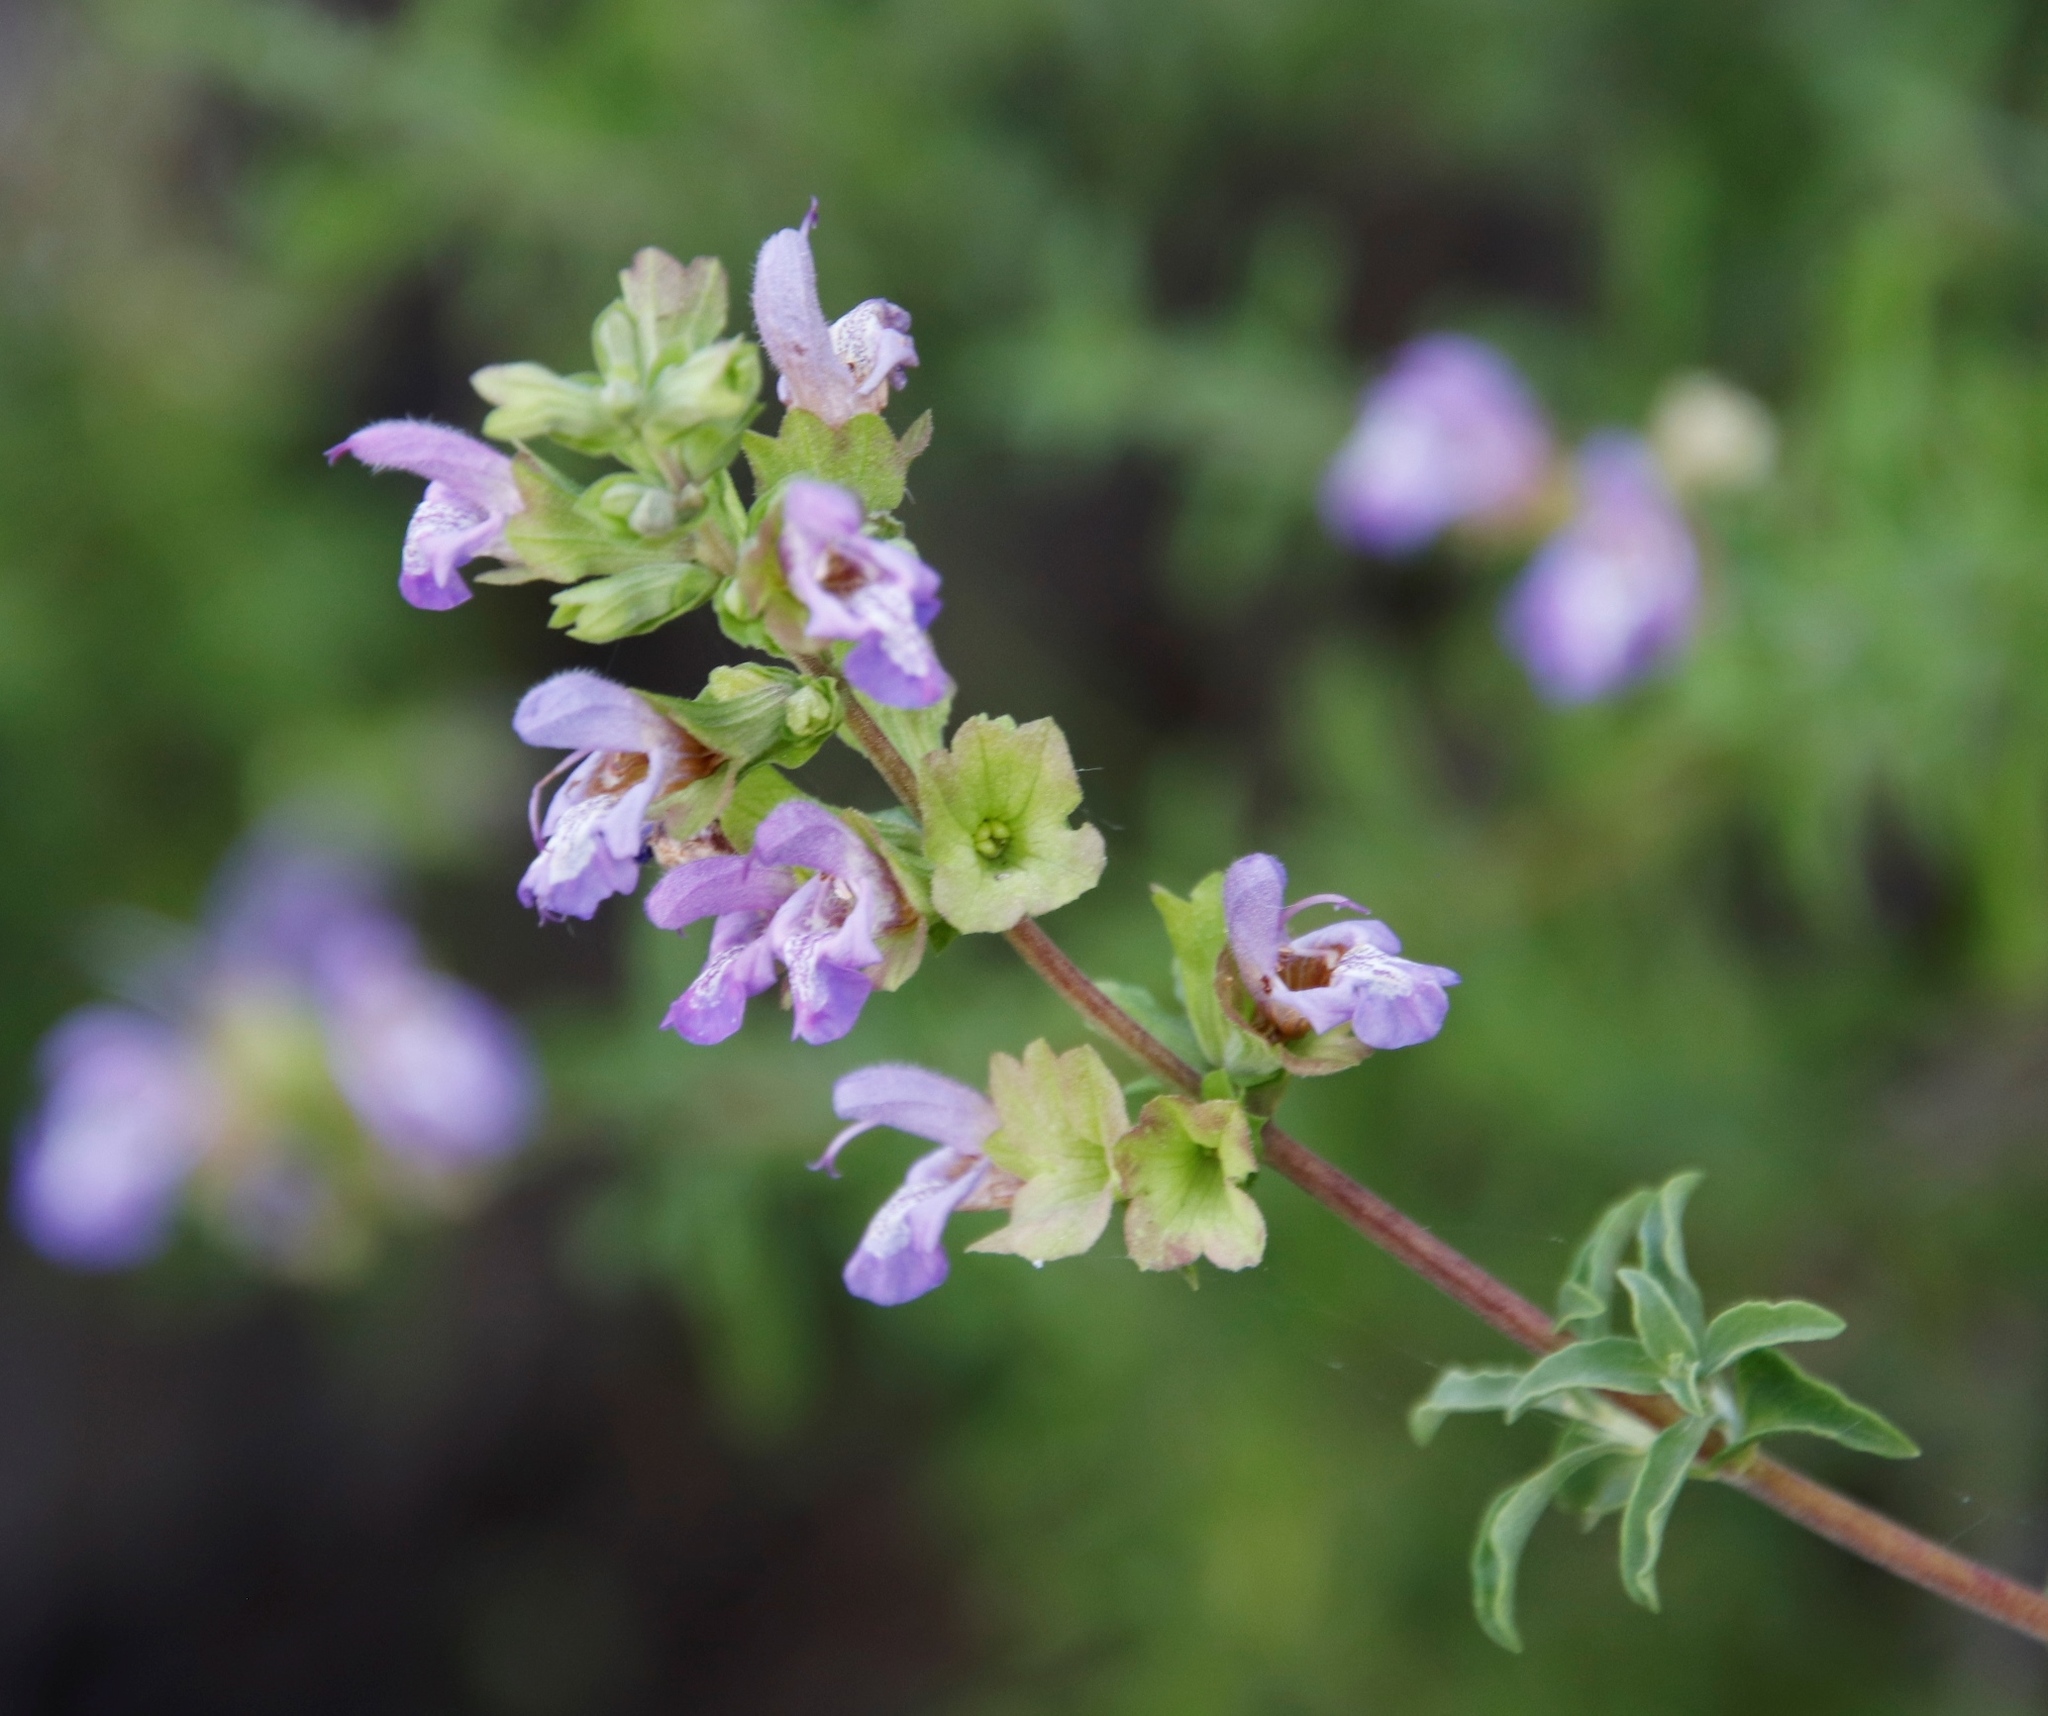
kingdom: Plantae
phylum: Tracheophyta
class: Magnoliopsida
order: Lamiales
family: Lamiaceae
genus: Salvia
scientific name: Salvia dentata
